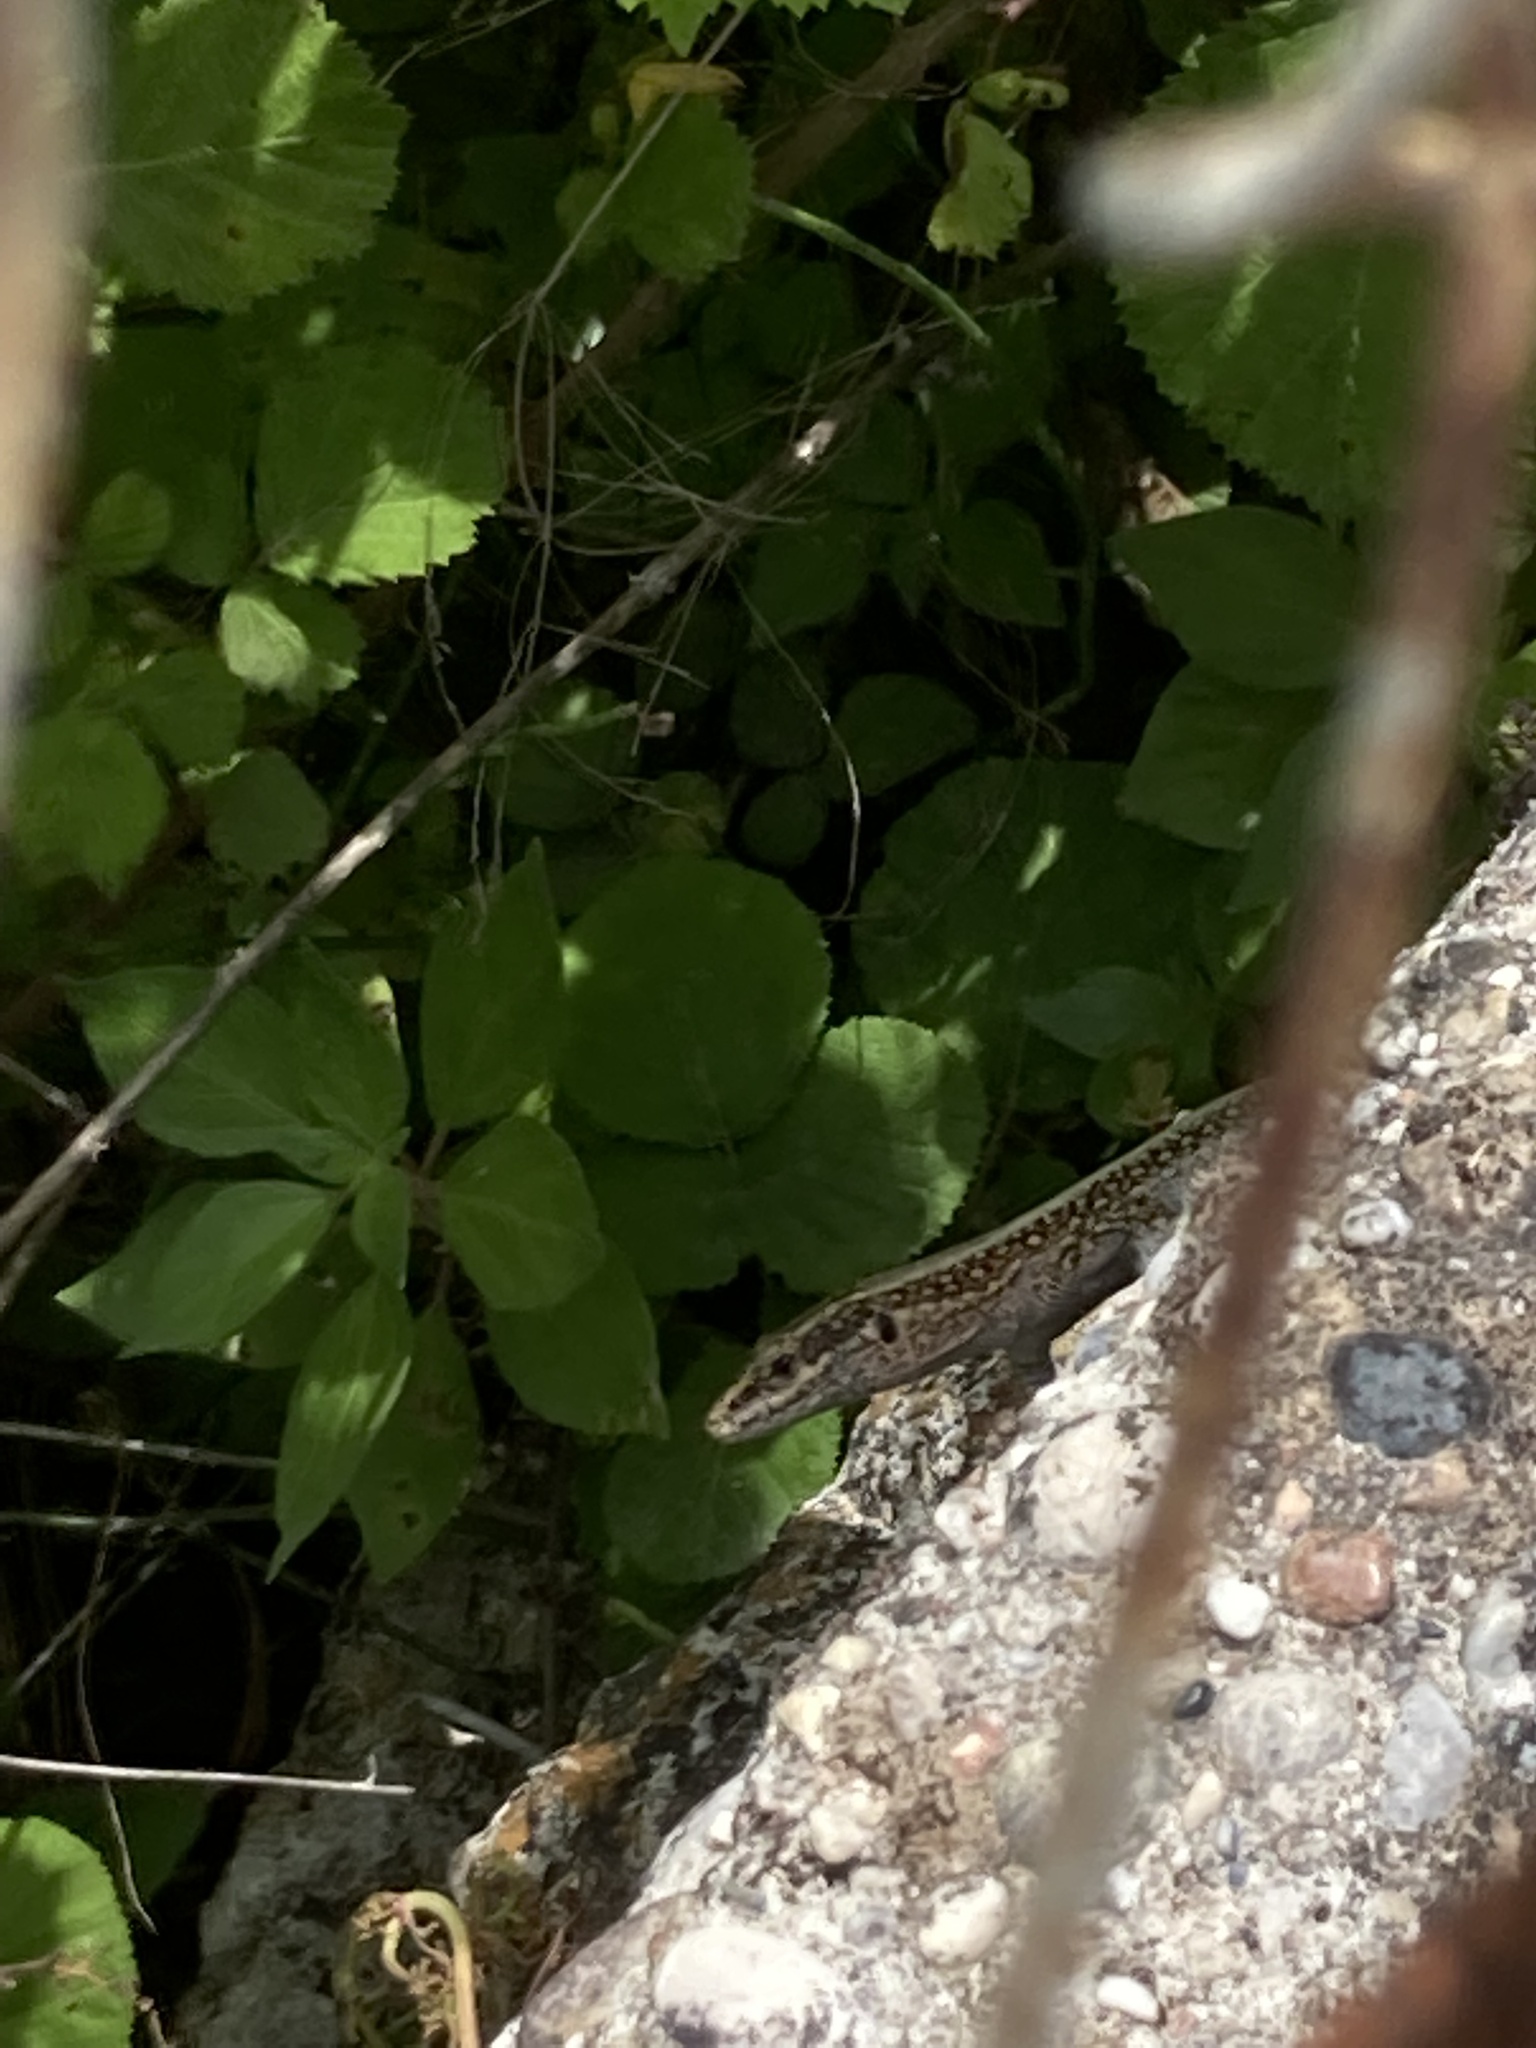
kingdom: Animalia
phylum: Chordata
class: Squamata
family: Lacertidae
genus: Anatololacerta
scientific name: Anatololacerta pelasgiana
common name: Pelasgian rock lizard
